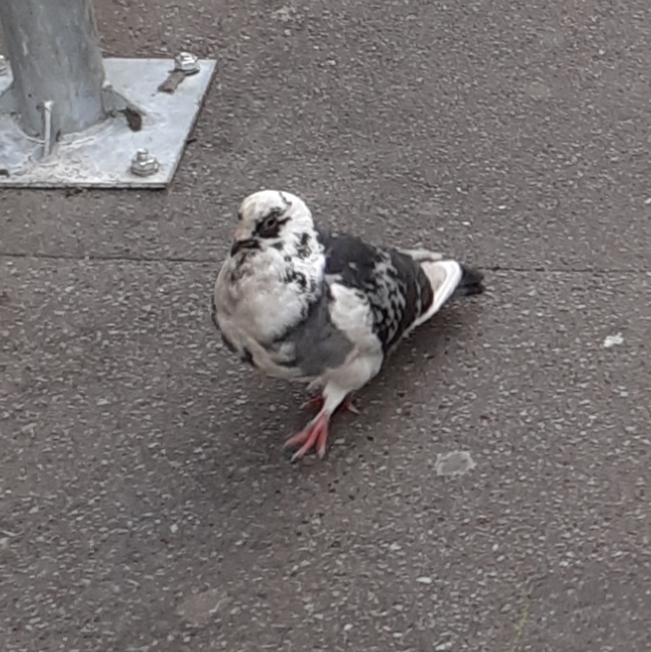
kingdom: Animalia
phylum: Chordata
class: Aves
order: Columbiformes
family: Columbidae
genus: Columba
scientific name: Columba livia
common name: Rock pigeon
